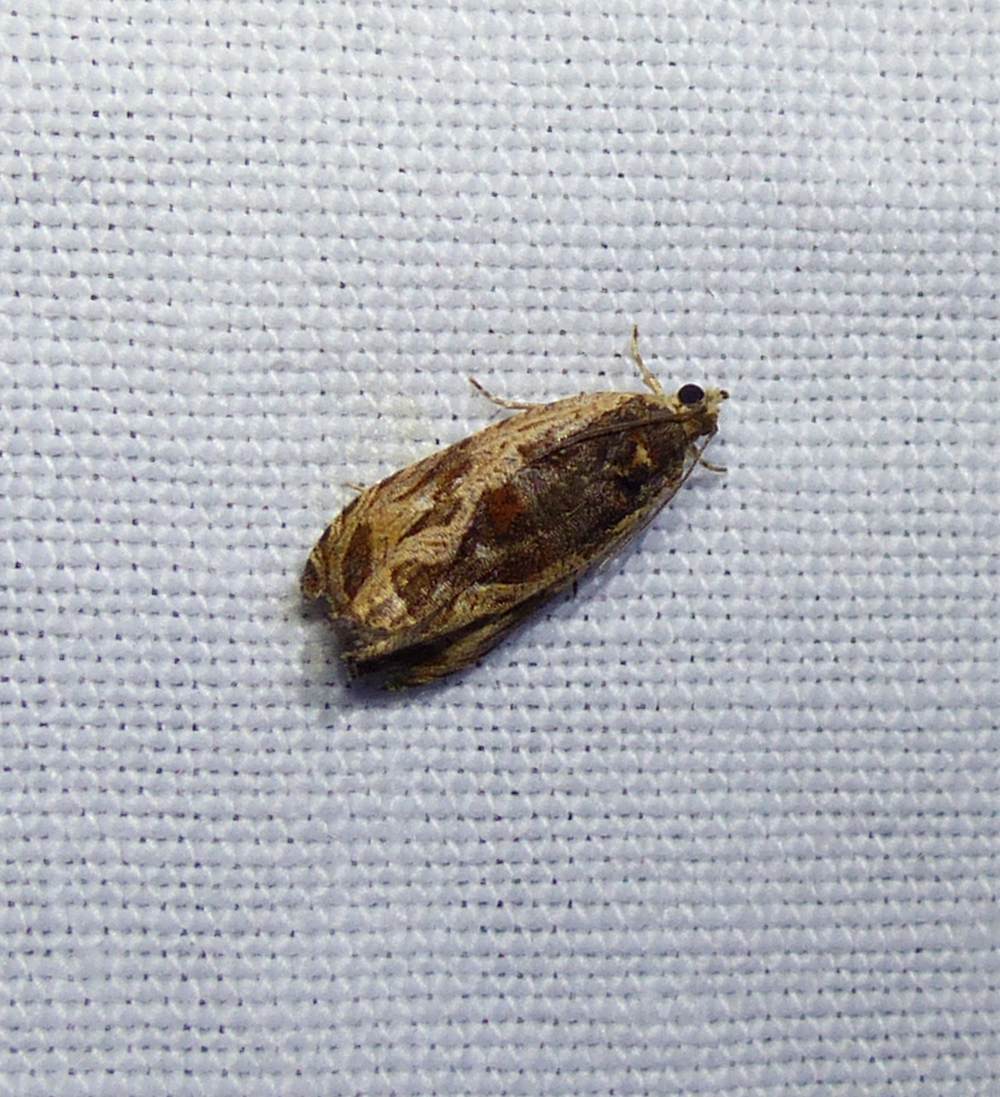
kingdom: Animalia
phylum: Arthropoda
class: Insecta
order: Lepidoptera
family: Tortricidae
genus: Olethreutes
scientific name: Olethreutes nigranum
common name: Variable nigranum moth
